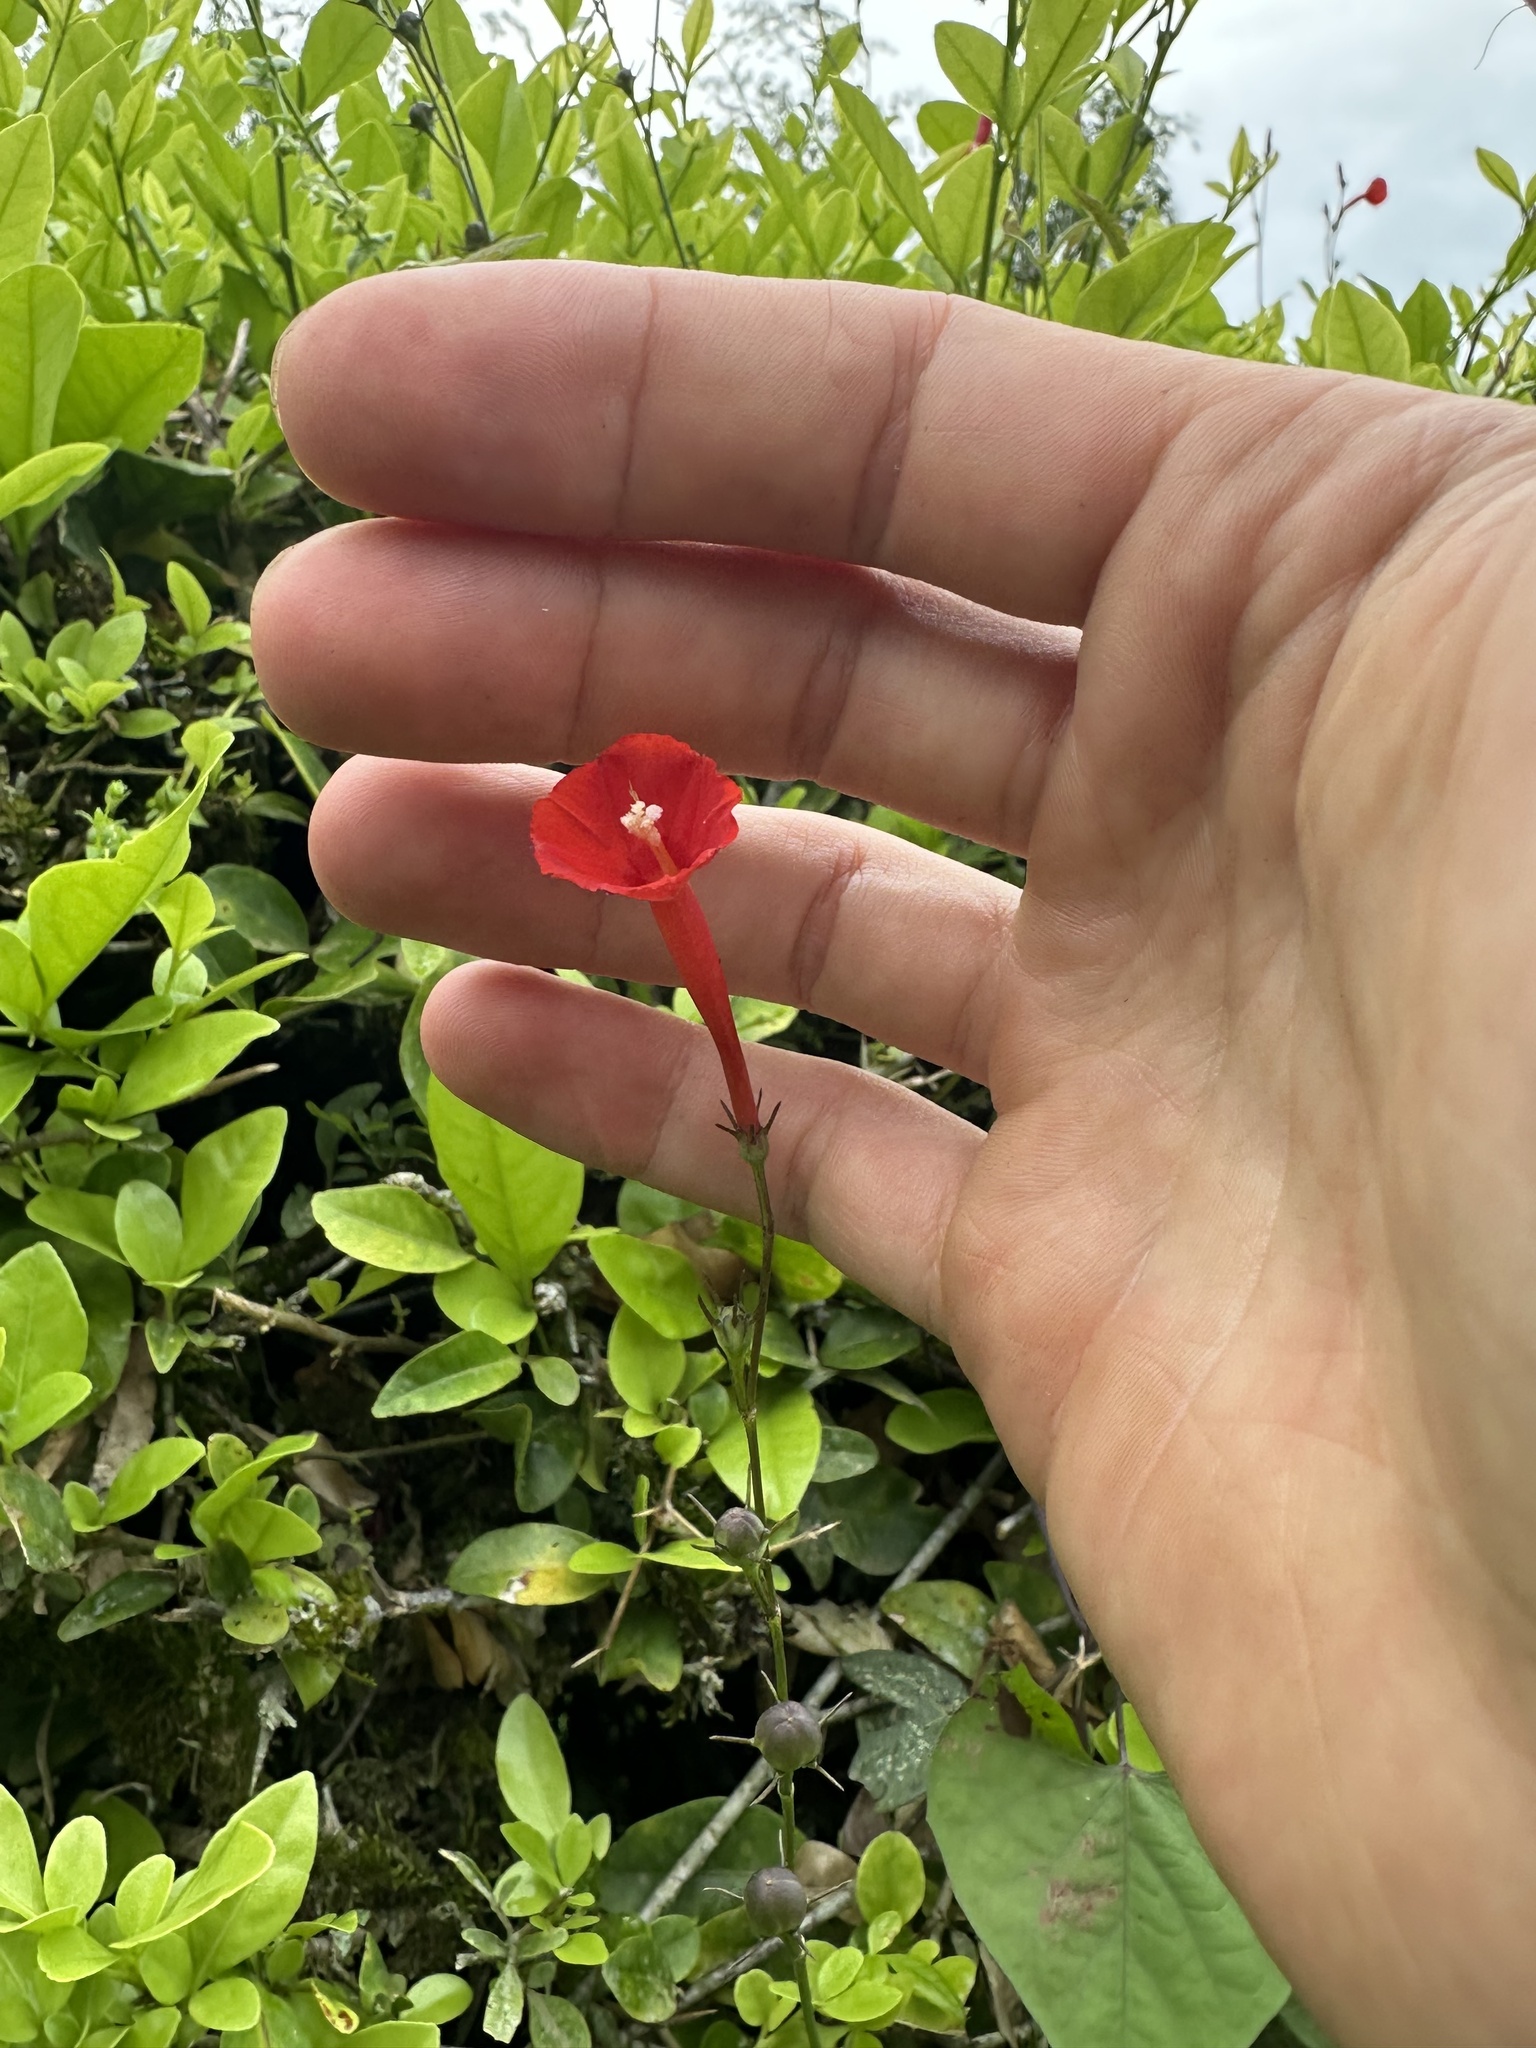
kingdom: Plantae
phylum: Tracheophyta
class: Magnoliopsida
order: Solanales
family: Convolvulaceae
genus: Ipomoea
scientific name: Ipomoea hederifolia
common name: Ivy-leaf morning-glory
